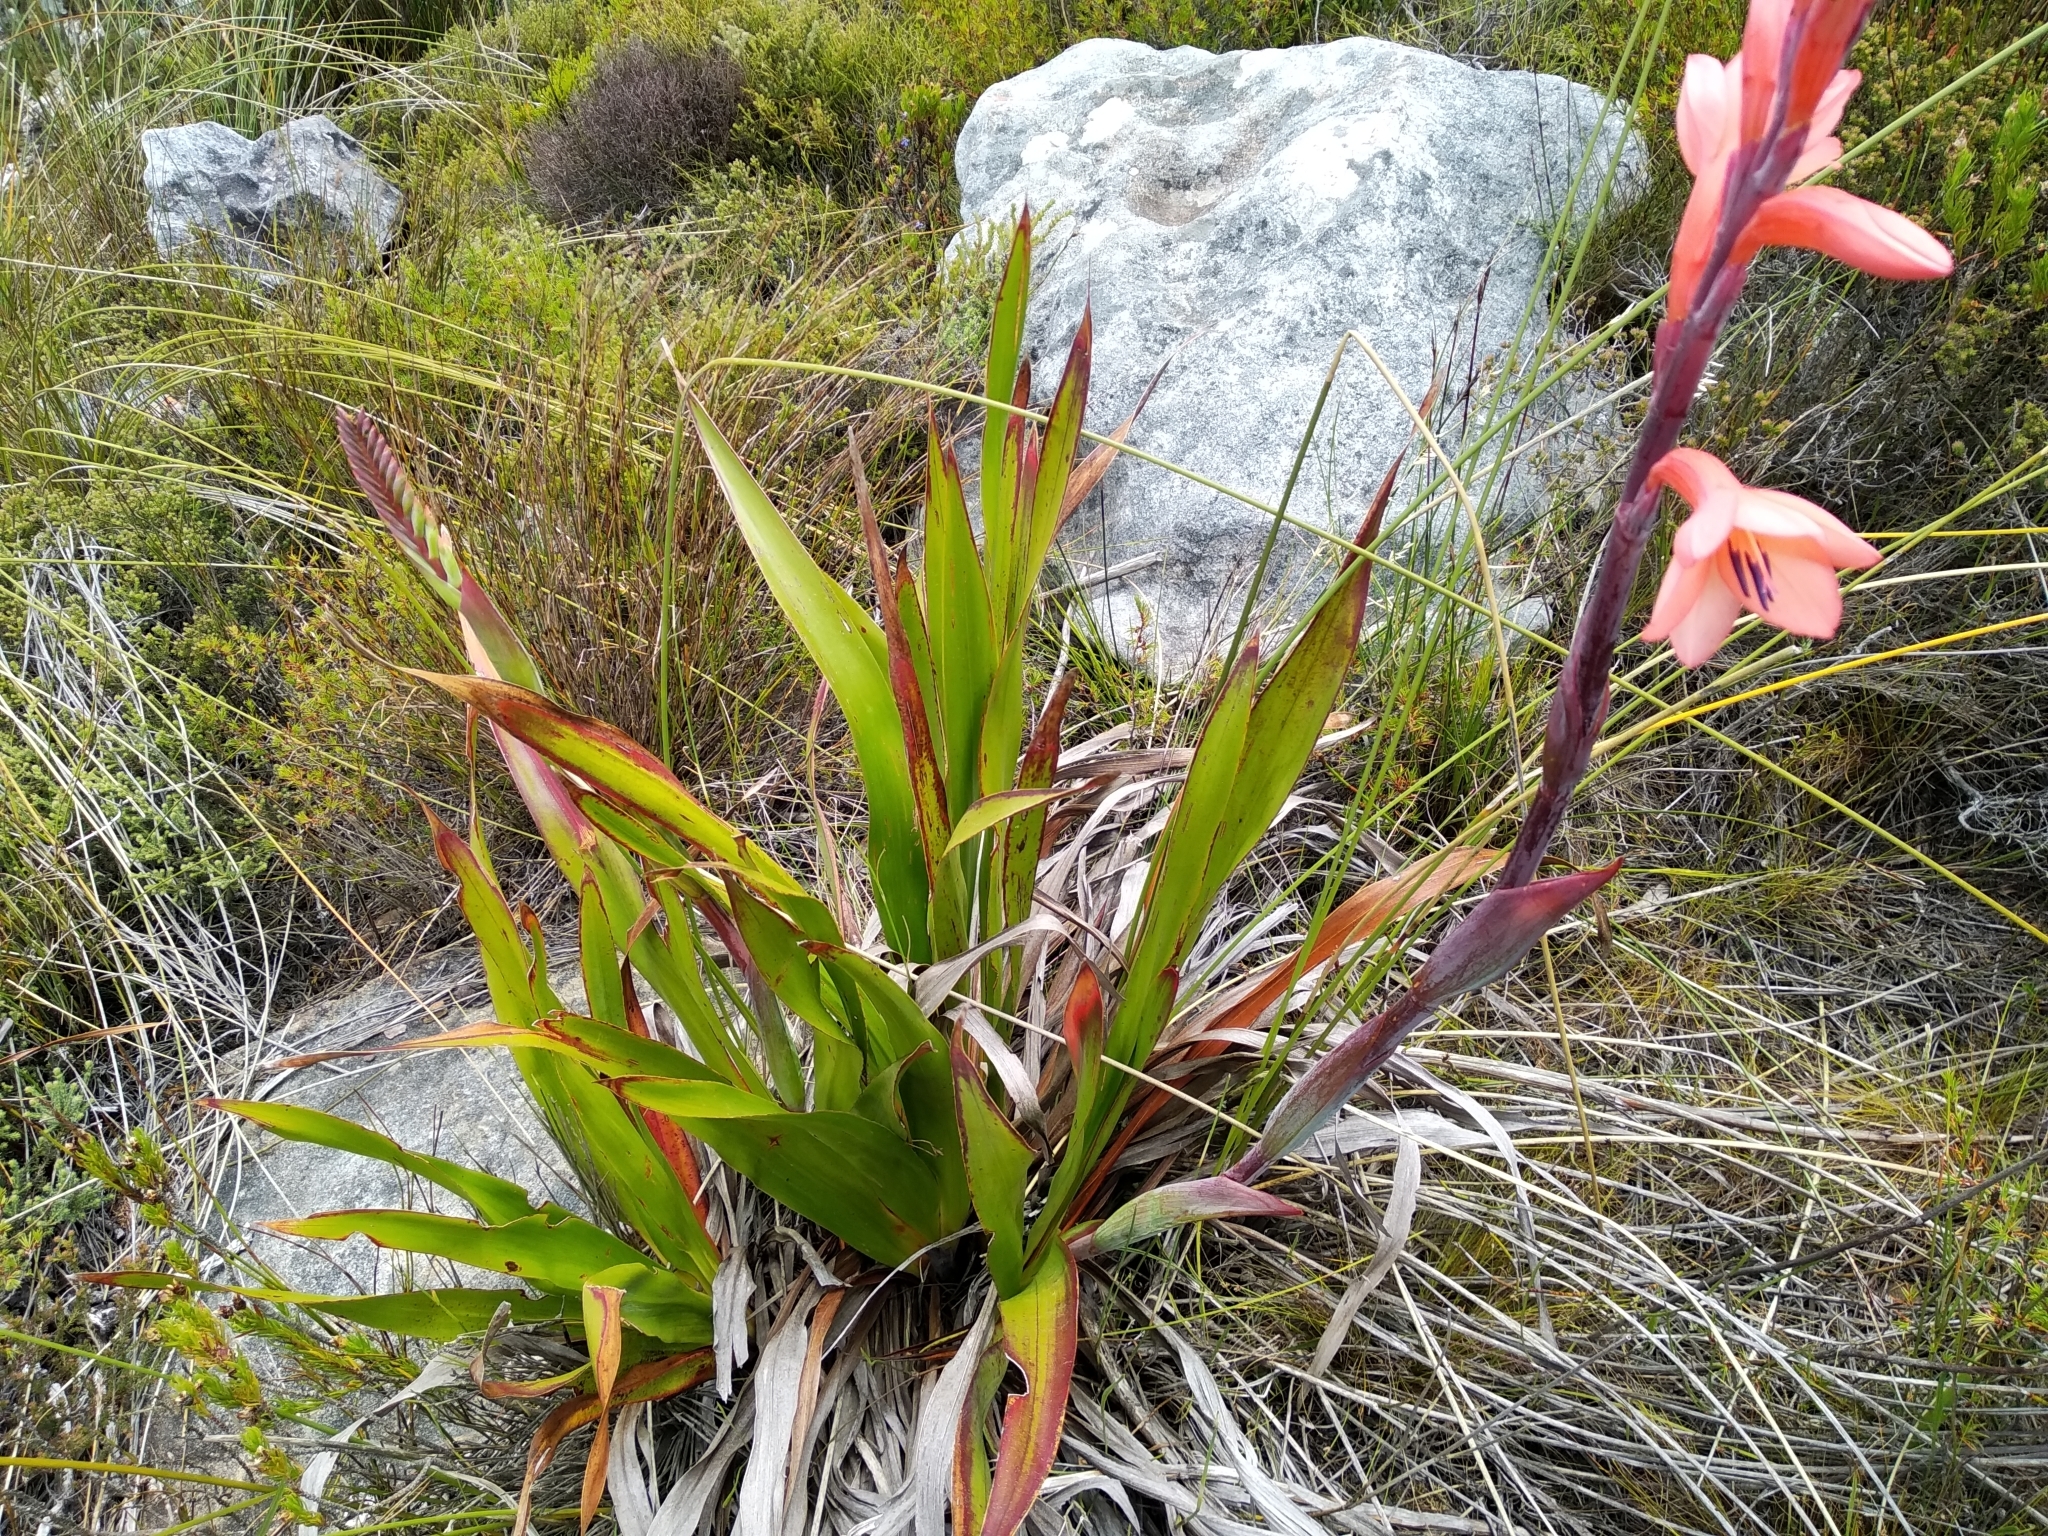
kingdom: Plantae
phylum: Tracheophyta
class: Liliopsida
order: Asparagales
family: Iridaceae
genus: Watsonia
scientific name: Watsonia tabularis
